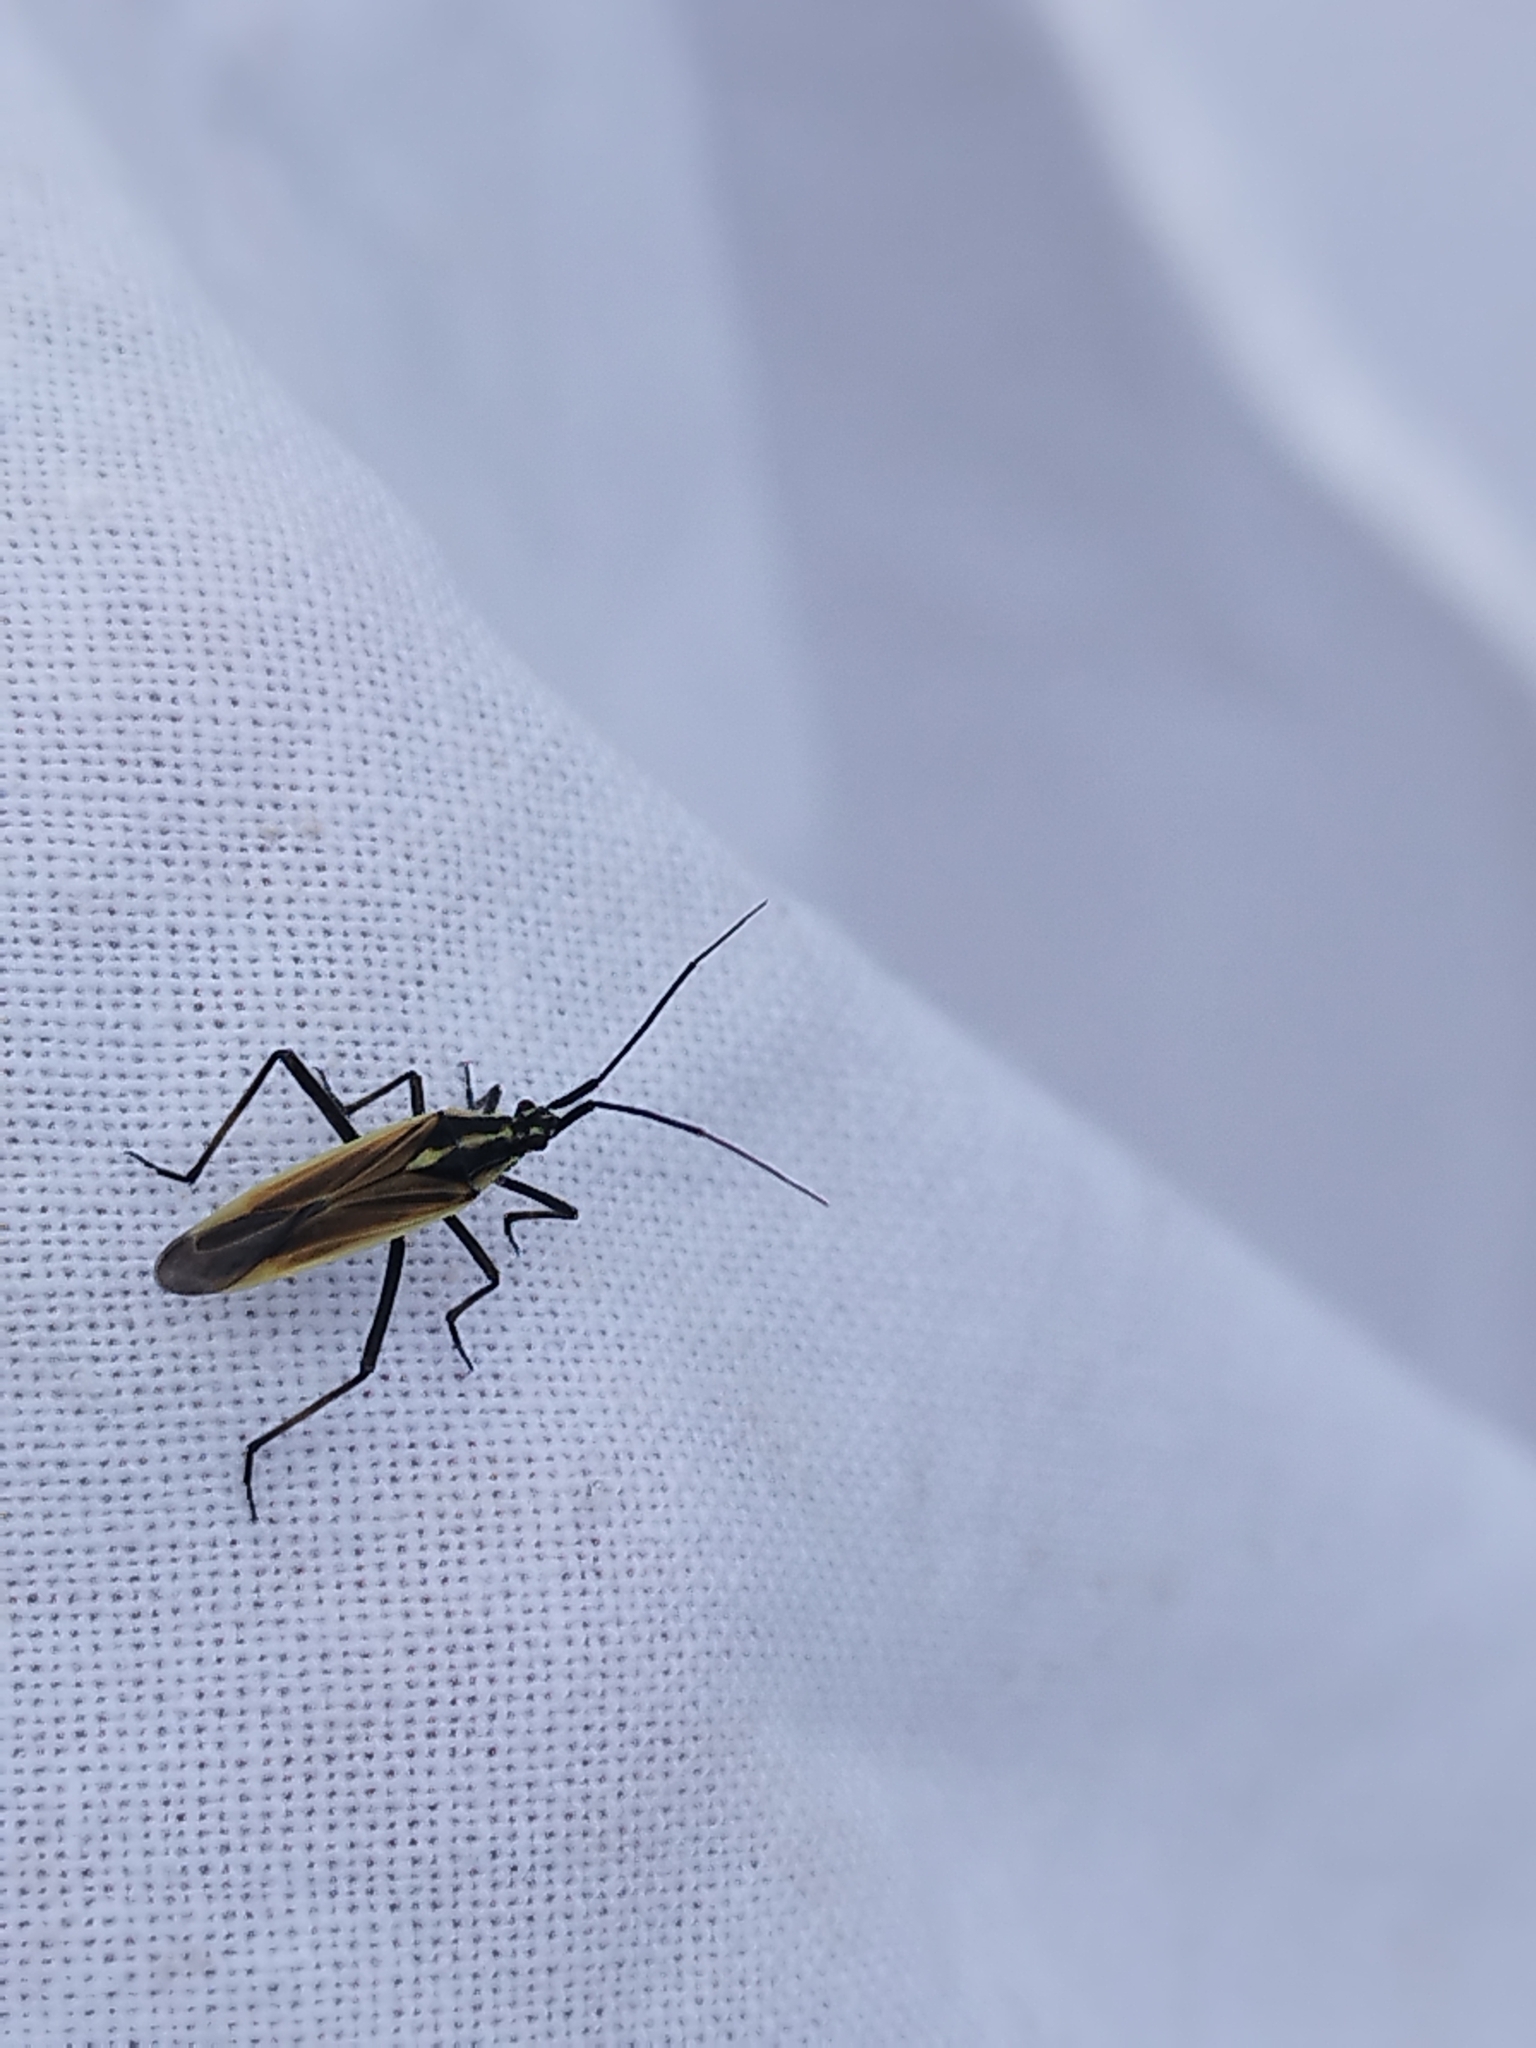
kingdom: Animalia
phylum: Arthropoda
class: Insecta
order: Hemiptera
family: Miridae
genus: Leptopterna
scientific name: Leptopterna dolabrata
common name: Meadow plant bug
